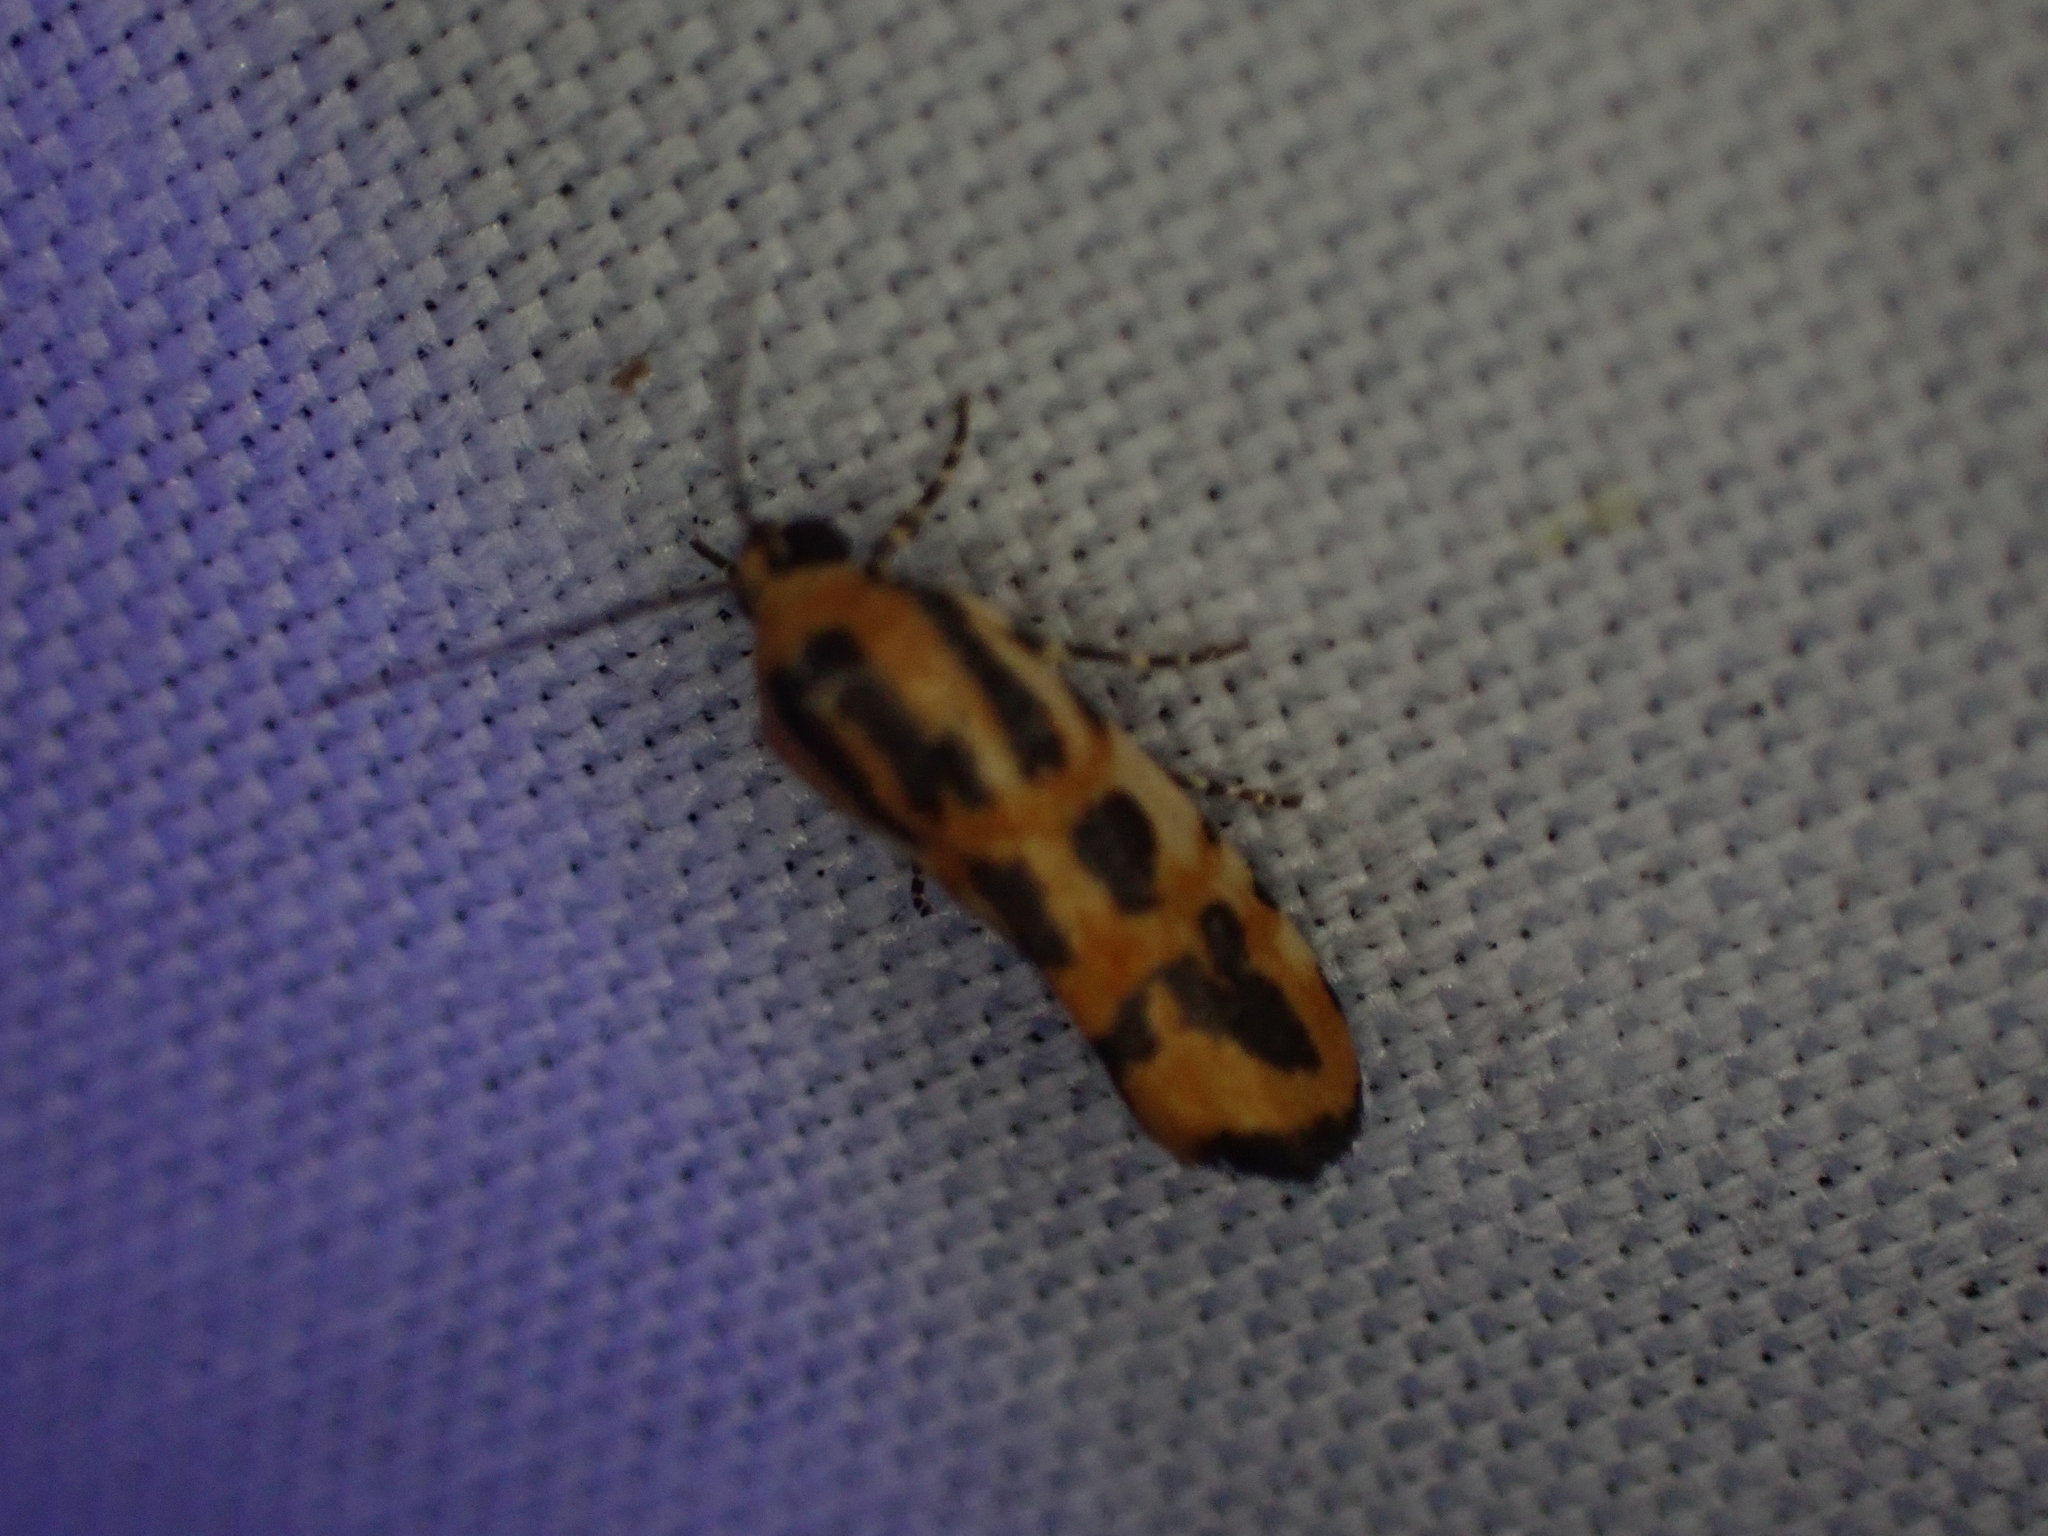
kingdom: Animalia
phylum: Arthropoda
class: Insecta
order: Lepidoptera
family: Noctuidae
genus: Acontia
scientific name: Acontia leo
